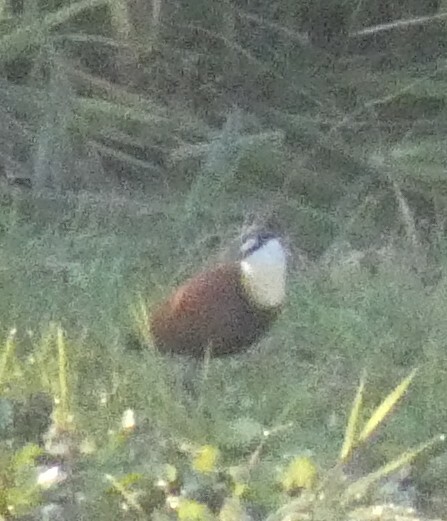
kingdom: Animalia
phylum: Chordata
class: Aves
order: Charadriiformes
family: Jacanidae
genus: Actophilornis
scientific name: Actophilornis africanus
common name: African jacana
